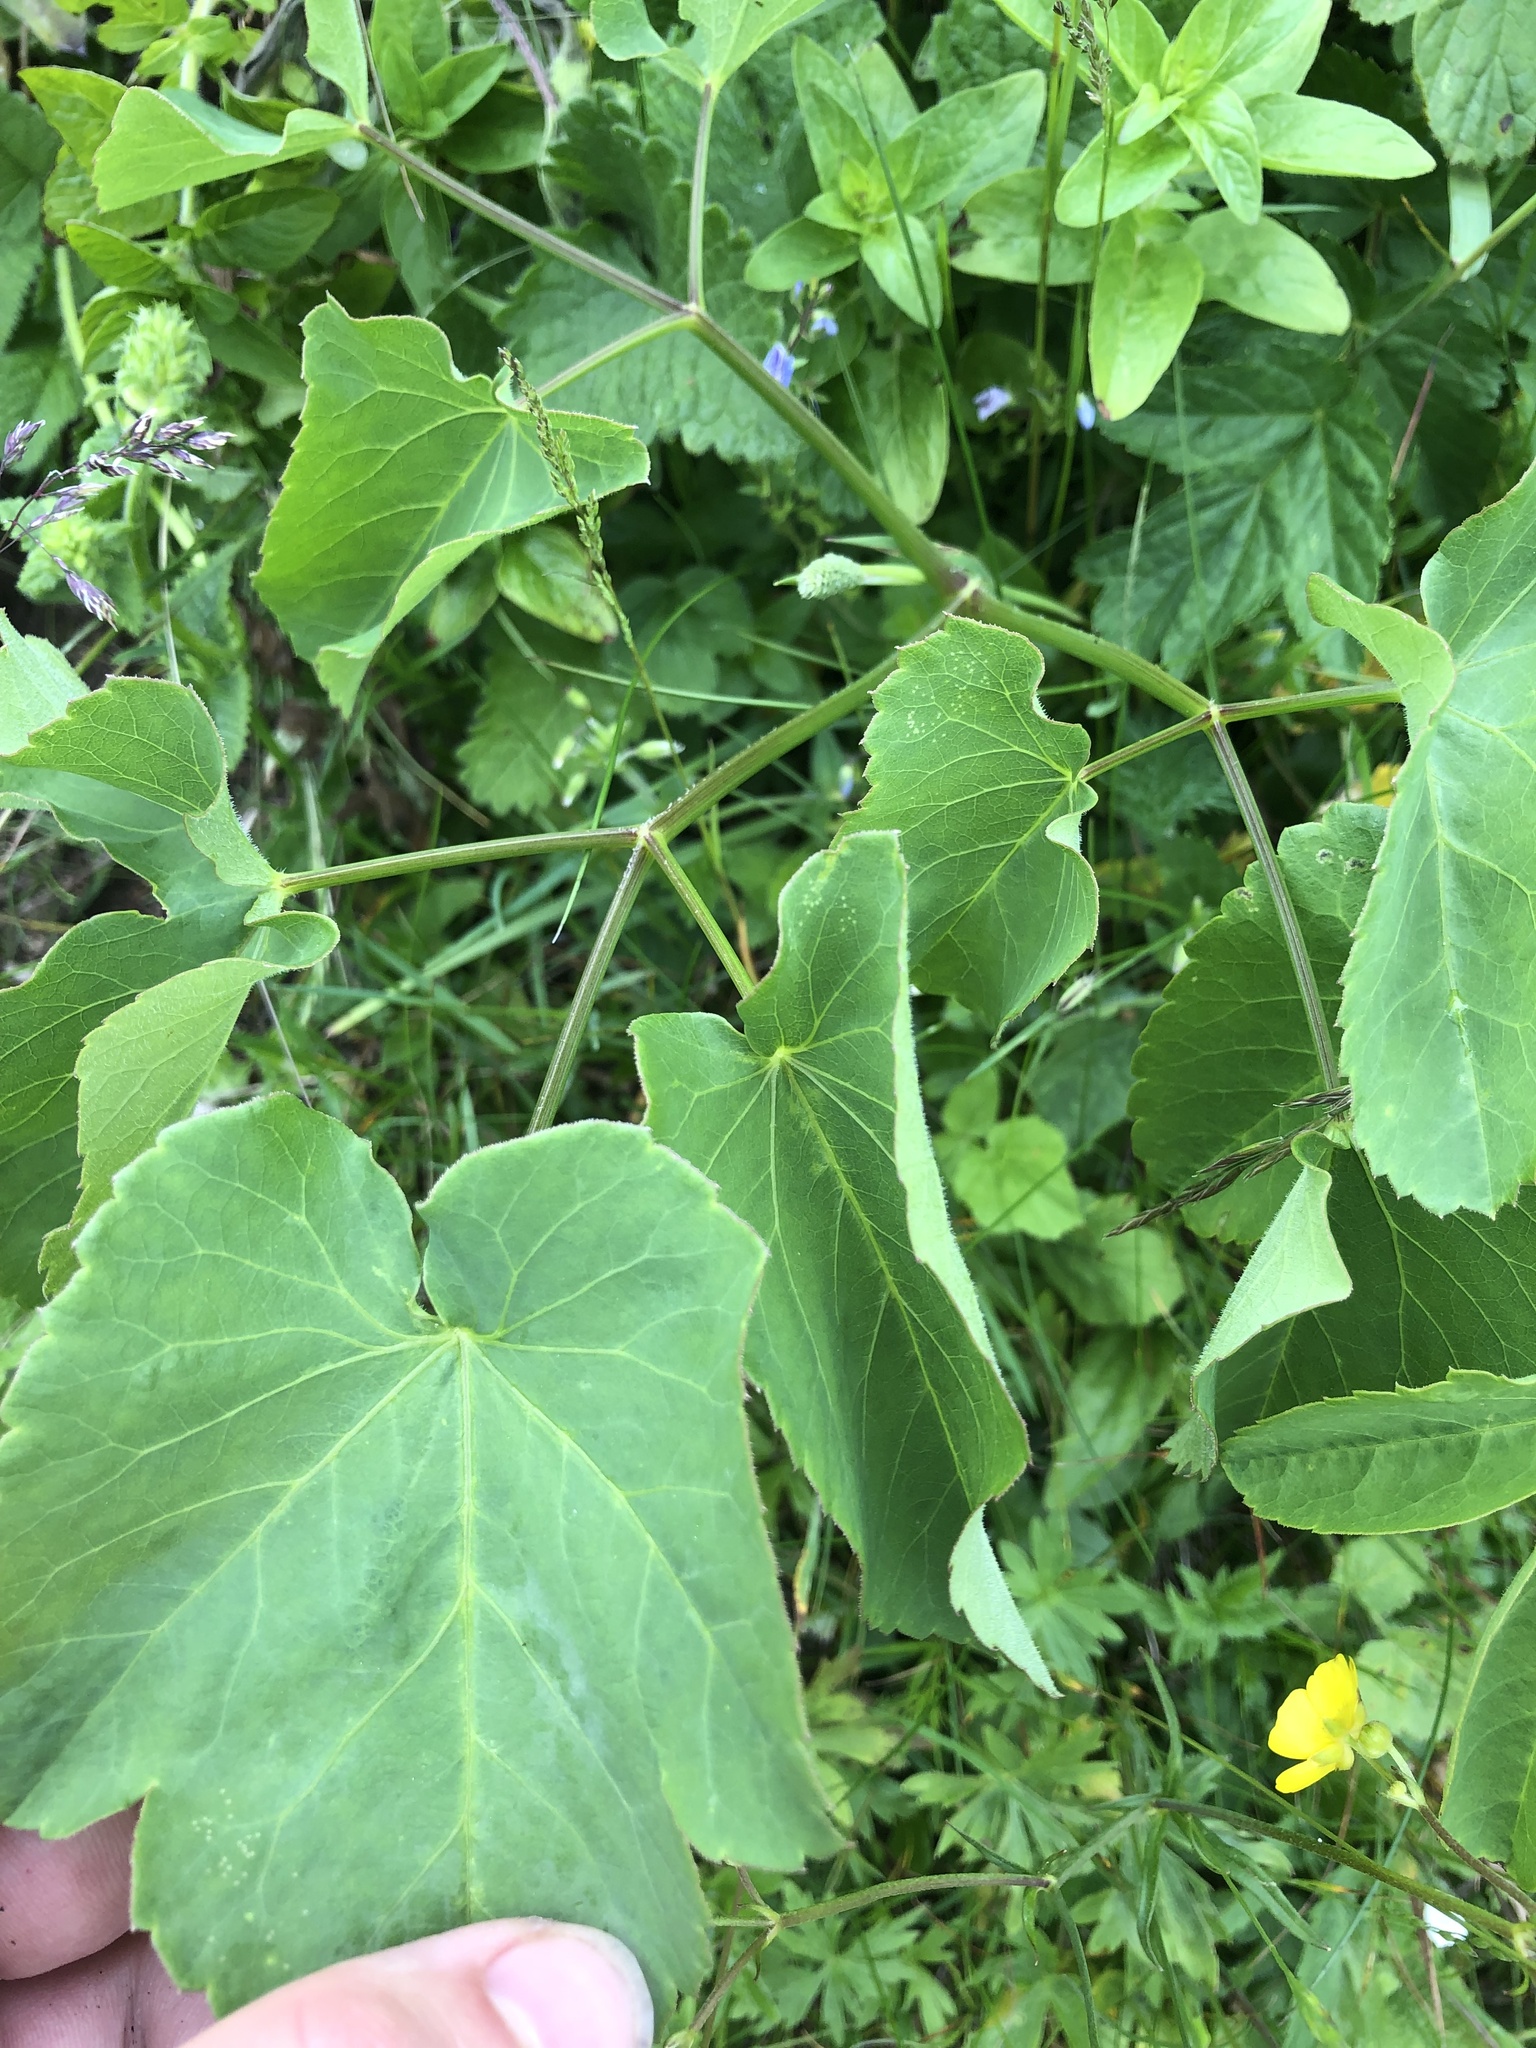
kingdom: Plantae
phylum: Tracheophyta
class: Magnoliopsida
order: Apiales
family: Apiaceae
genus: Laserpitium
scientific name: Laserpitium latifolium
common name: Broadleaf sermountain
